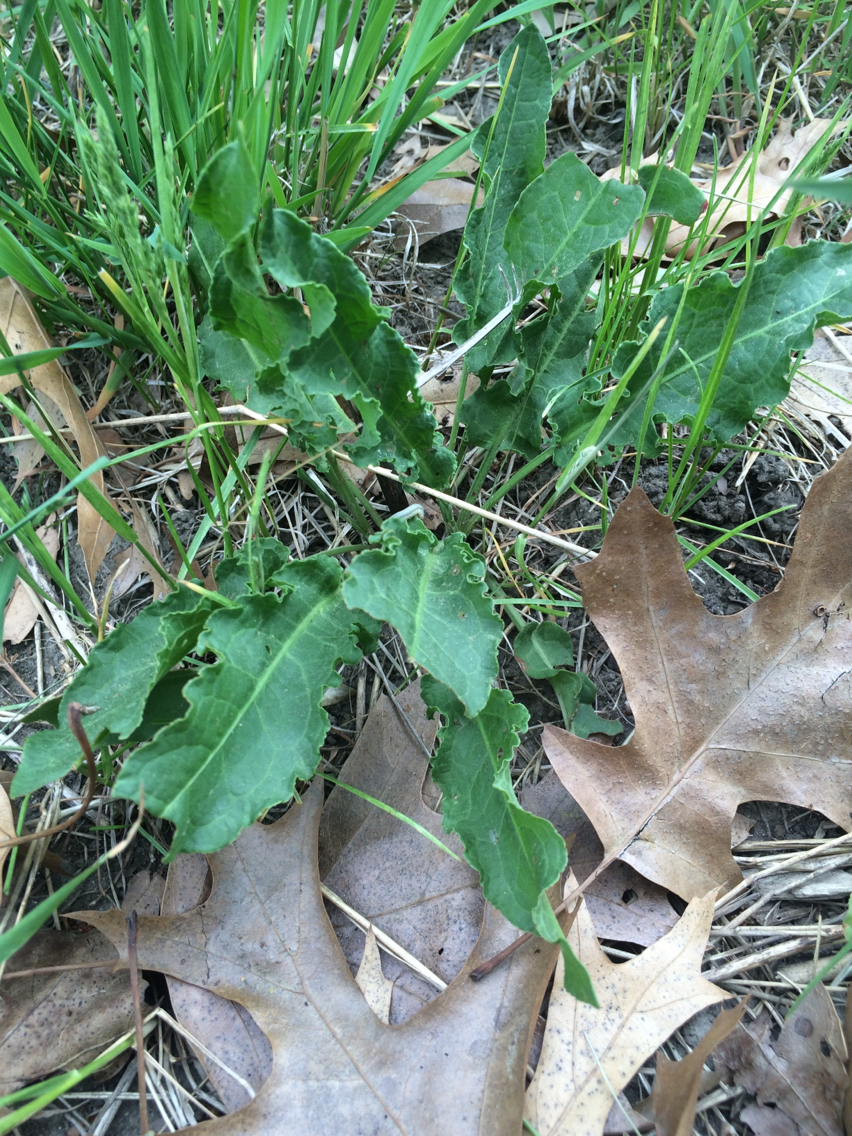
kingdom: Plantae
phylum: Tracheophyta
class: Magnoliopsida
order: Caryophyllales
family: Polygonaceae
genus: Rumex
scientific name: Rumex crispus
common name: Curled dock
